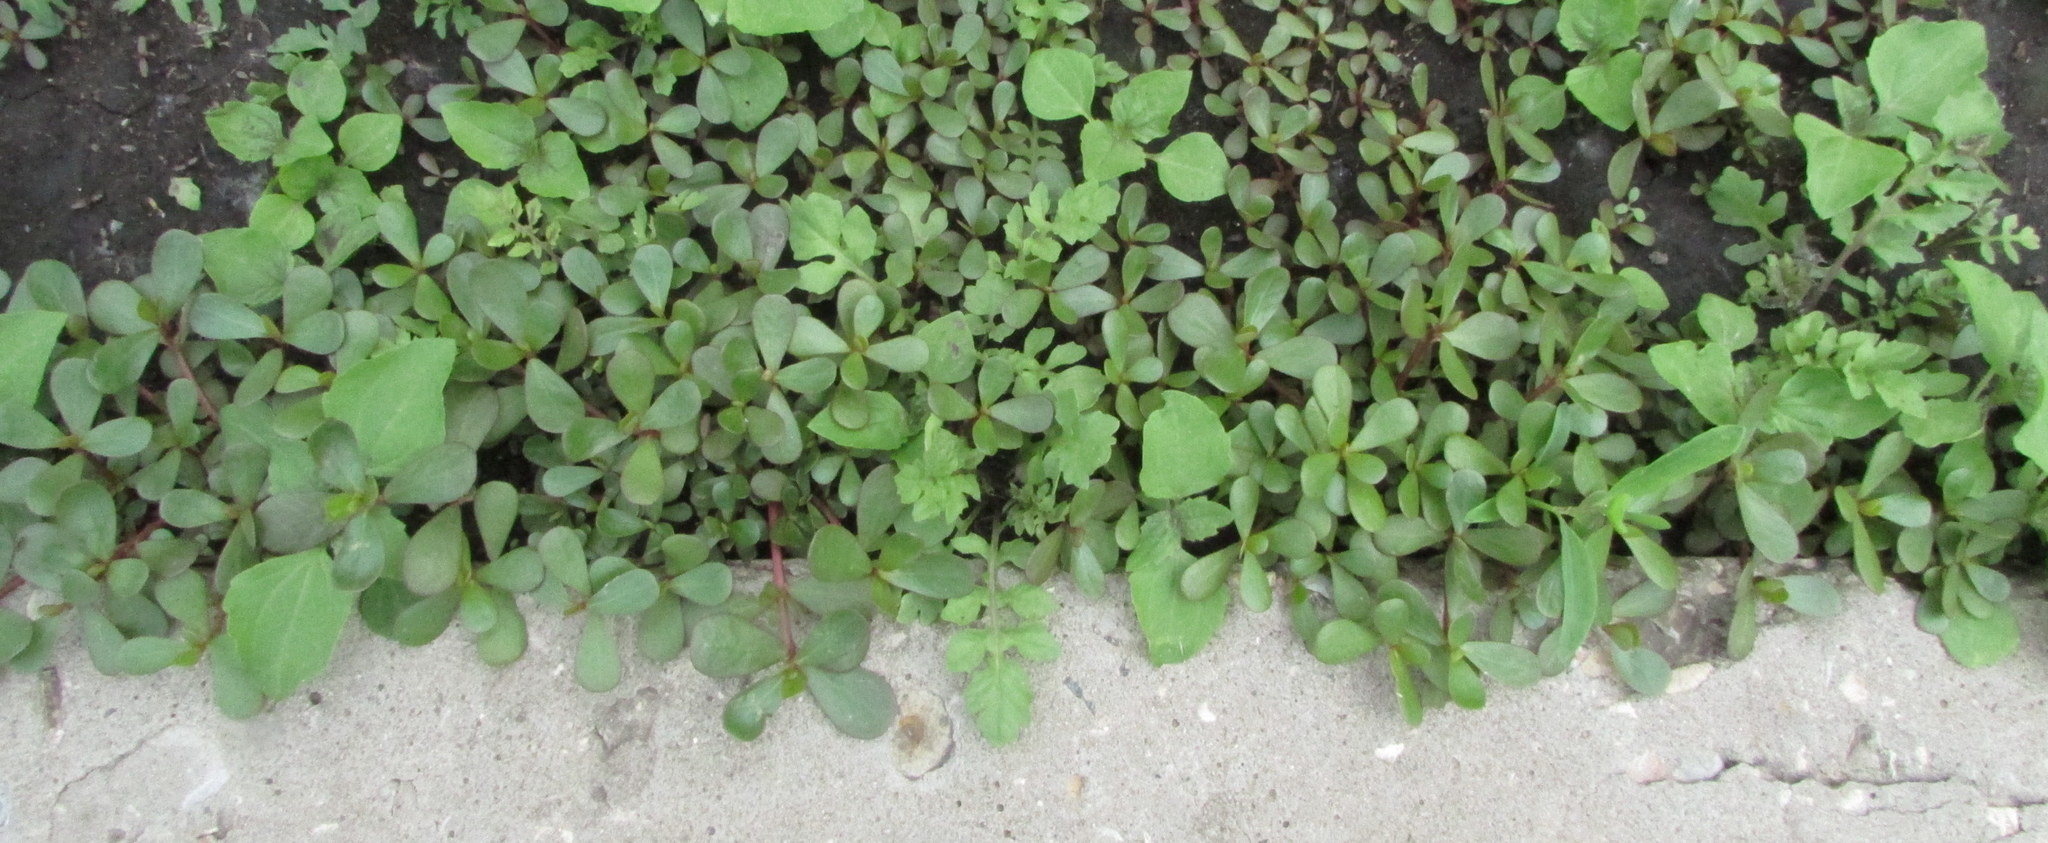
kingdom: Plantae
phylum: Tracheophyta
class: Magnoliopsida
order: Caryophyllales
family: Portulacaceae
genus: Portulaca
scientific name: Portulaca oleracea
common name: Common purslane
